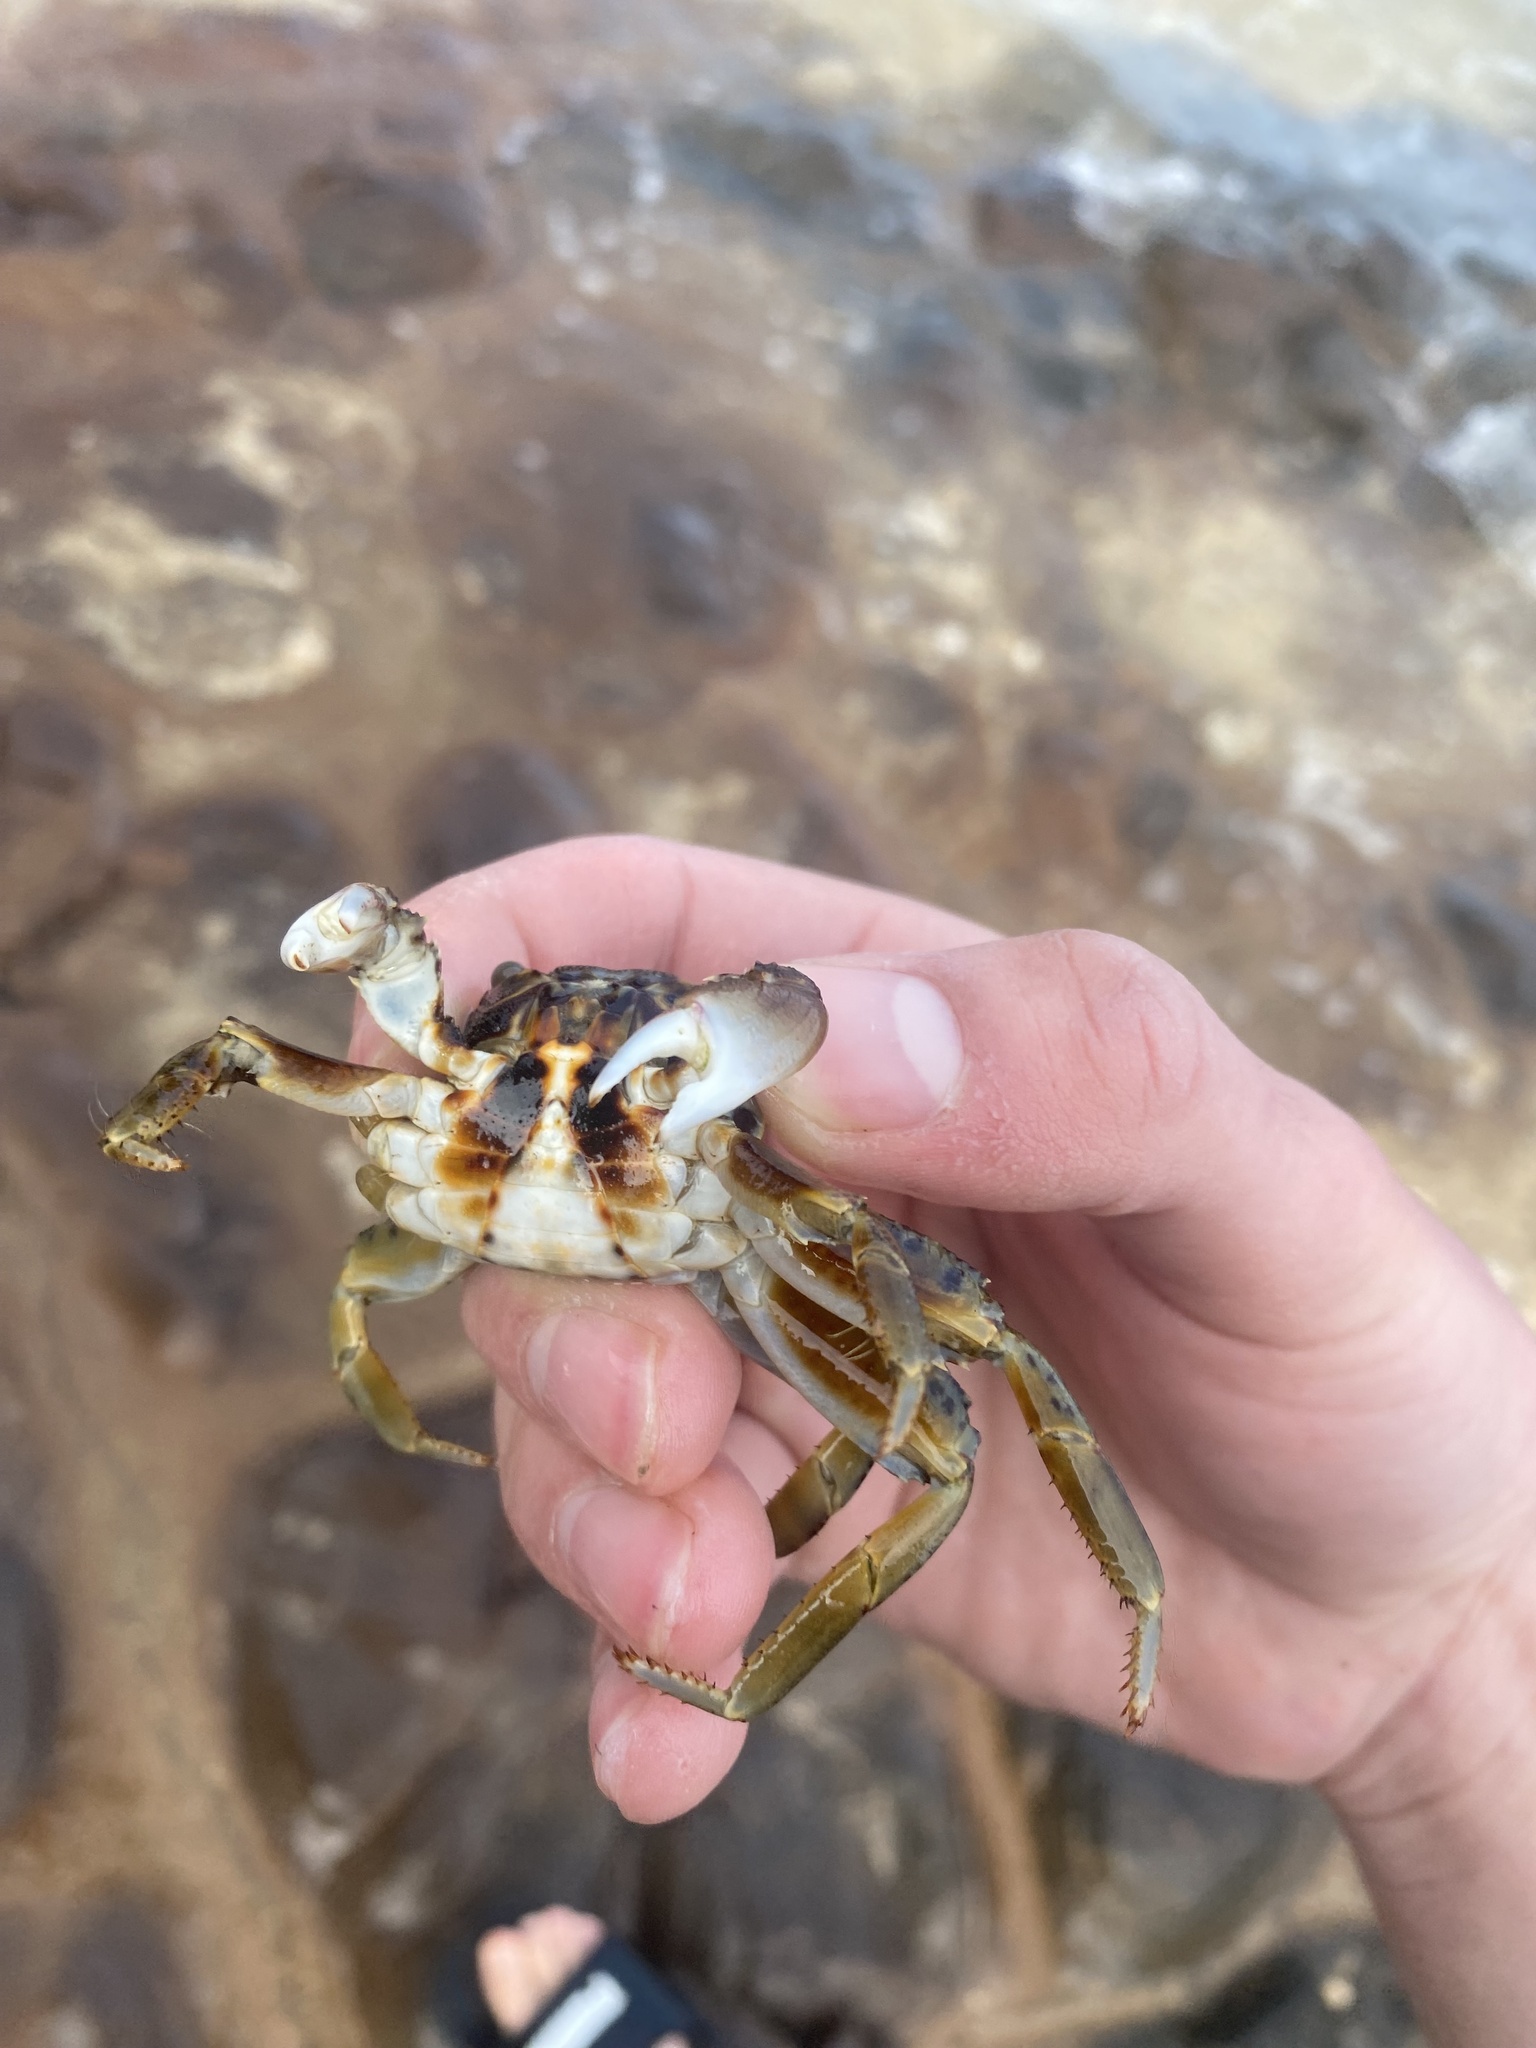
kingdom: Animalia
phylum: Arthropoda
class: Malacostraca
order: Decapoda
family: Grapsidae
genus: Grapsus
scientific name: Grapsus tenuicrustatus
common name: Natal lightfoot crab
